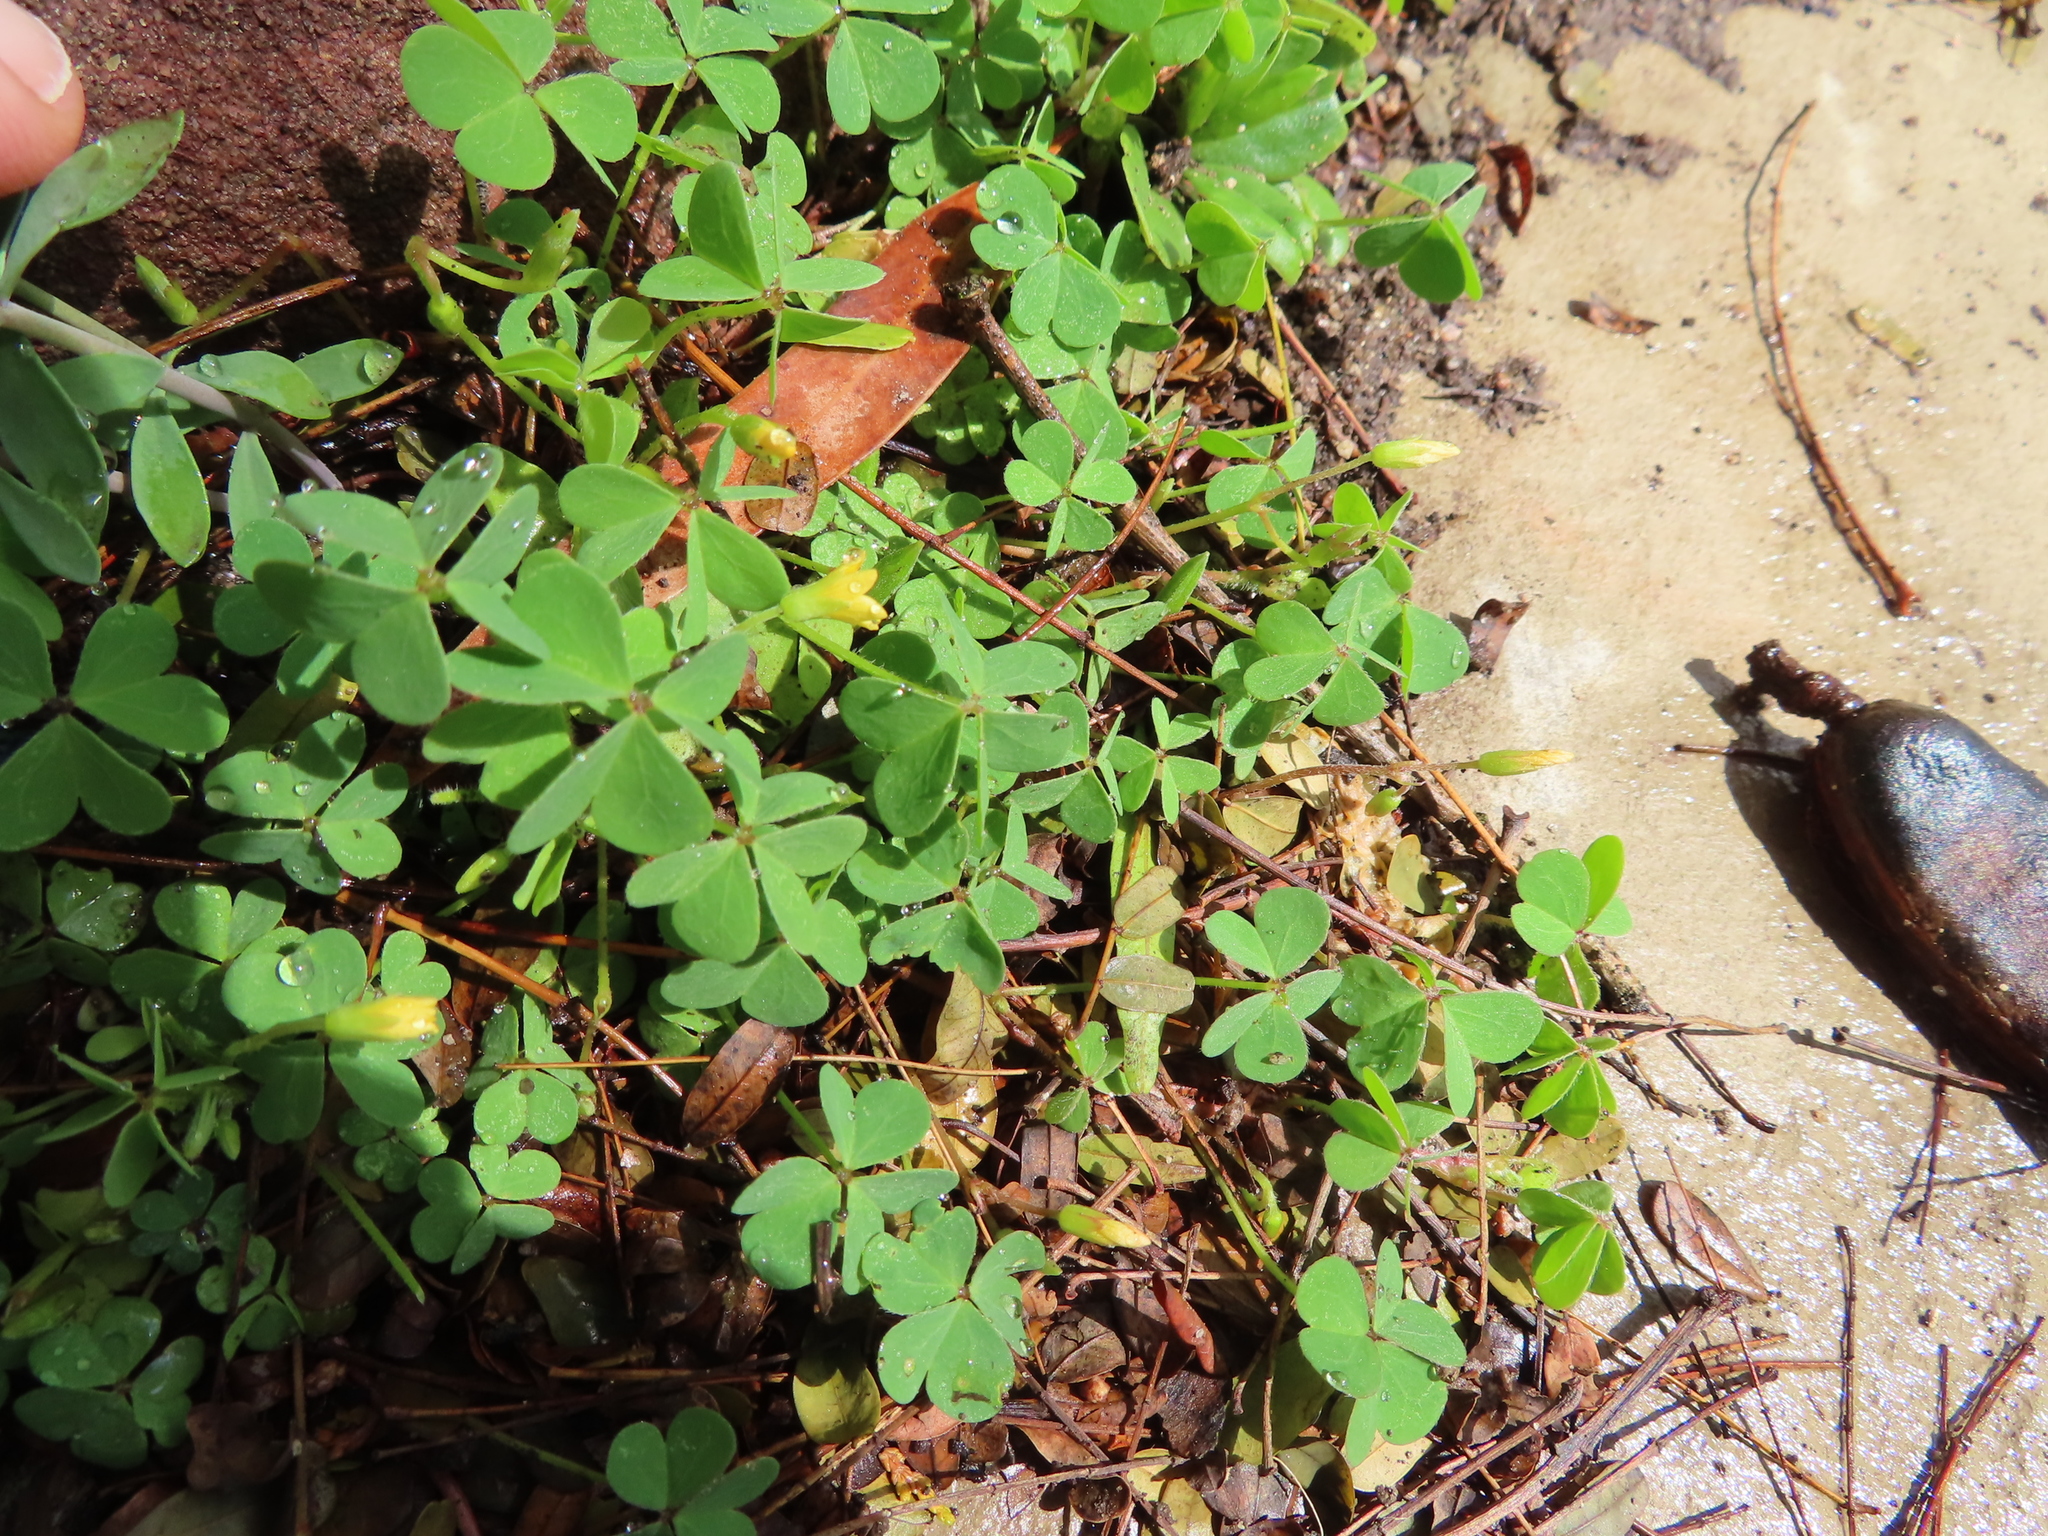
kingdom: Plantae
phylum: Tracheophyta
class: Magnoliopsida
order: Oxalidales
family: Oxalidaceae
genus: Oxalis
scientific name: Oxalis corniculata
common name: Procumbent yellow-sorrel
